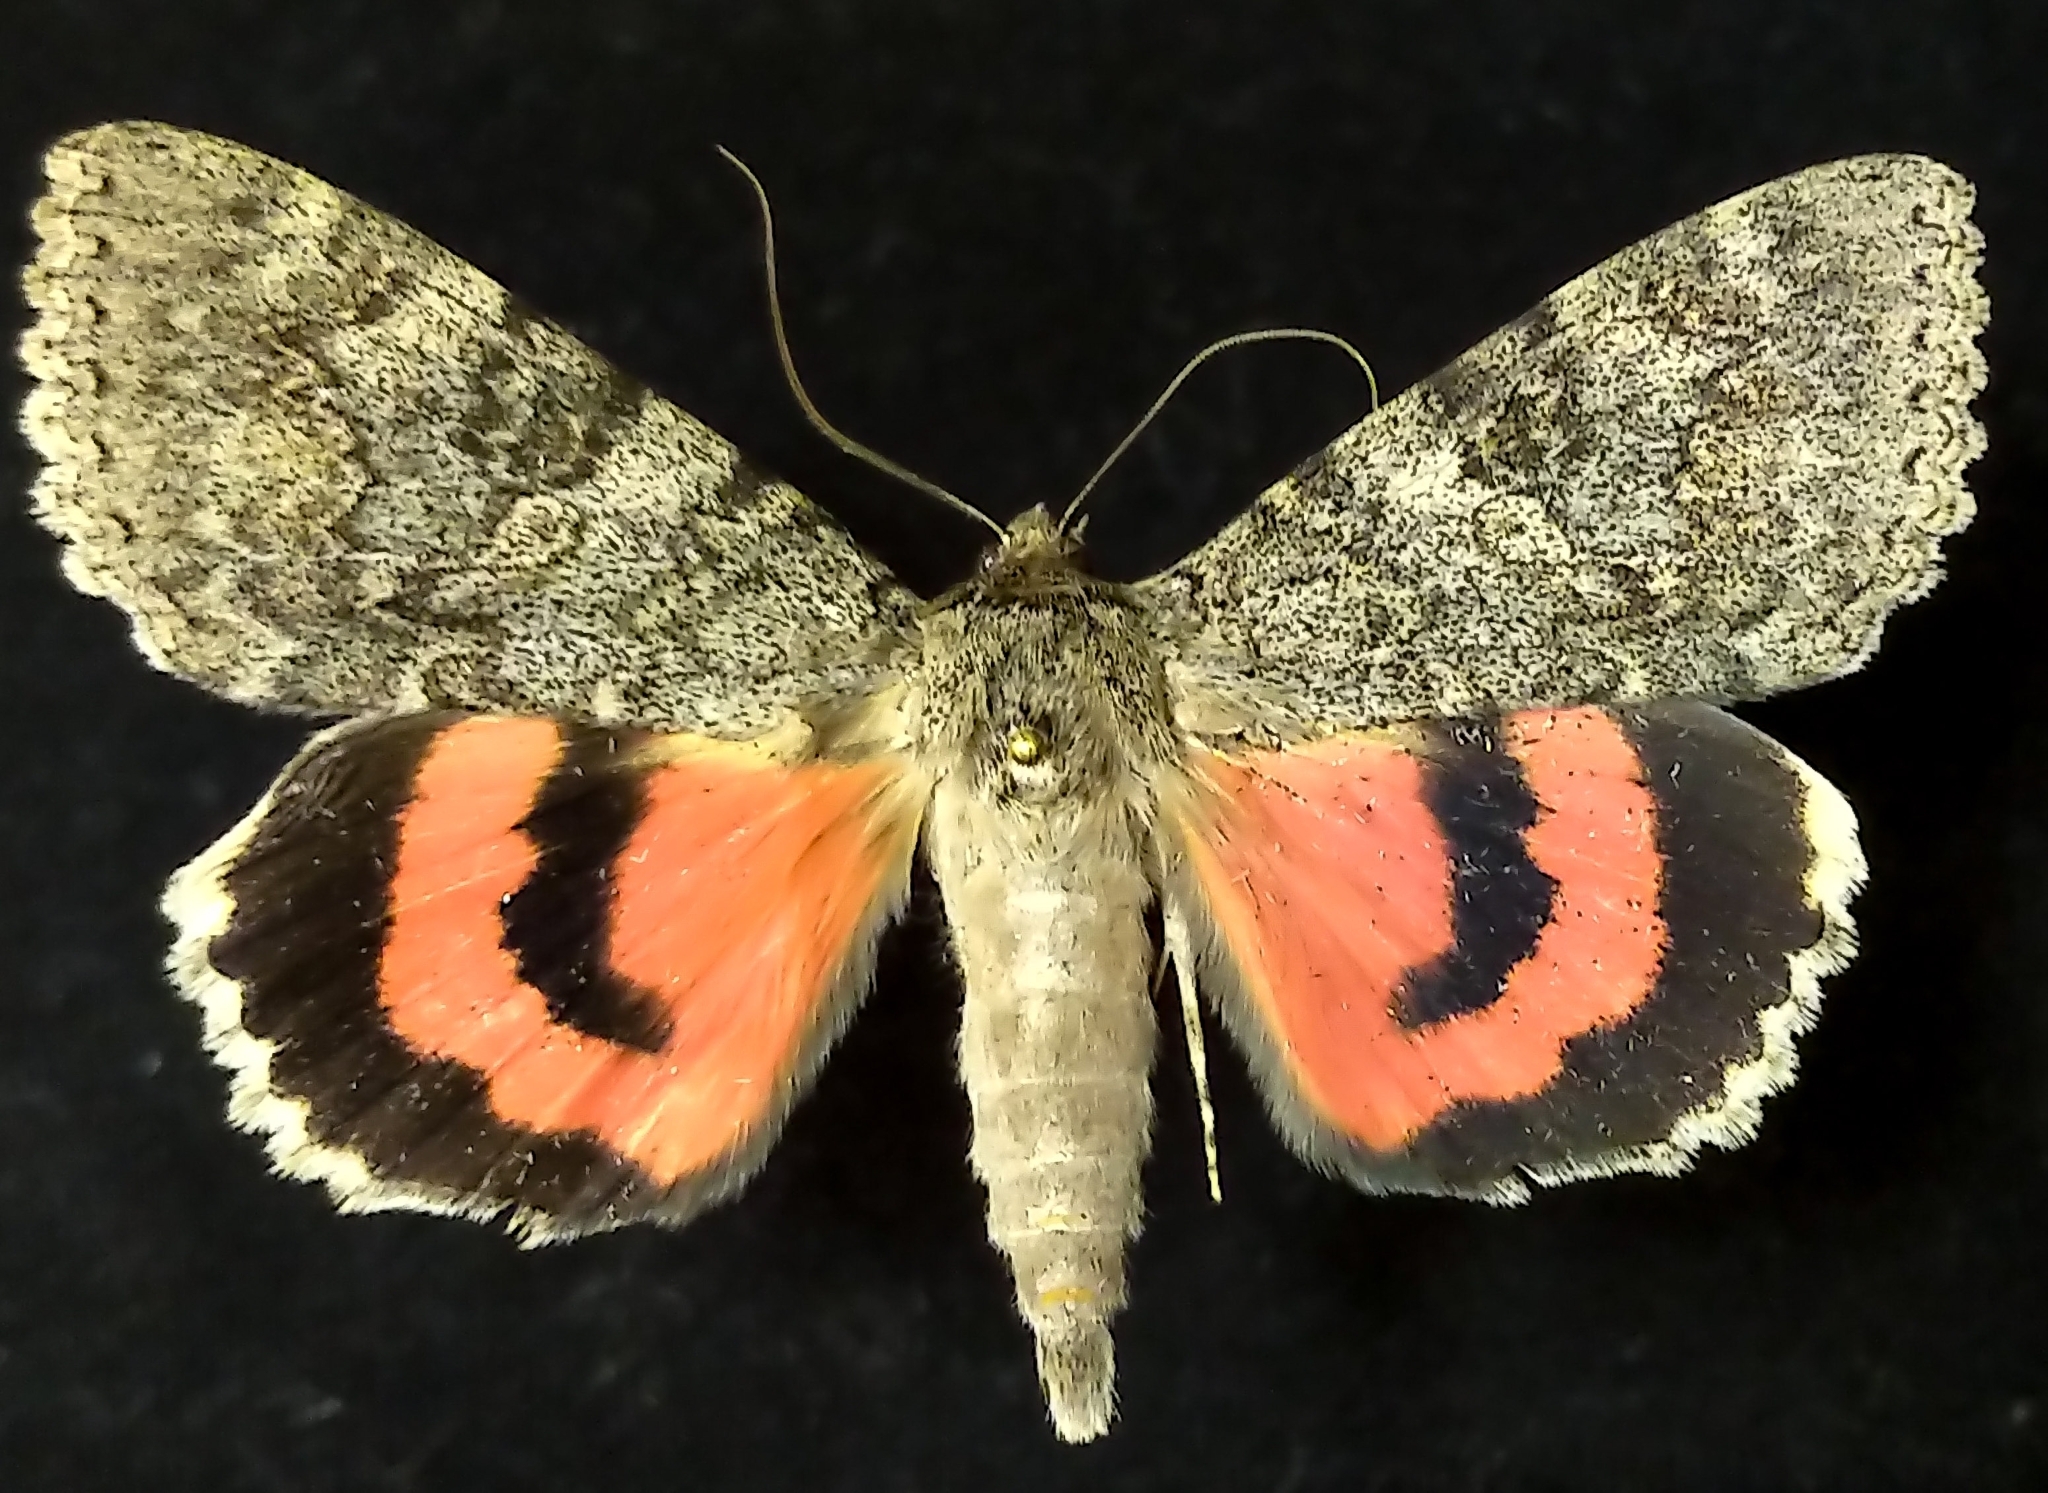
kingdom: Animalia
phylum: Arthropoda
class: Insecta
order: Lepidoptera
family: Erebidae
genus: Catocala
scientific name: Catocala californica
